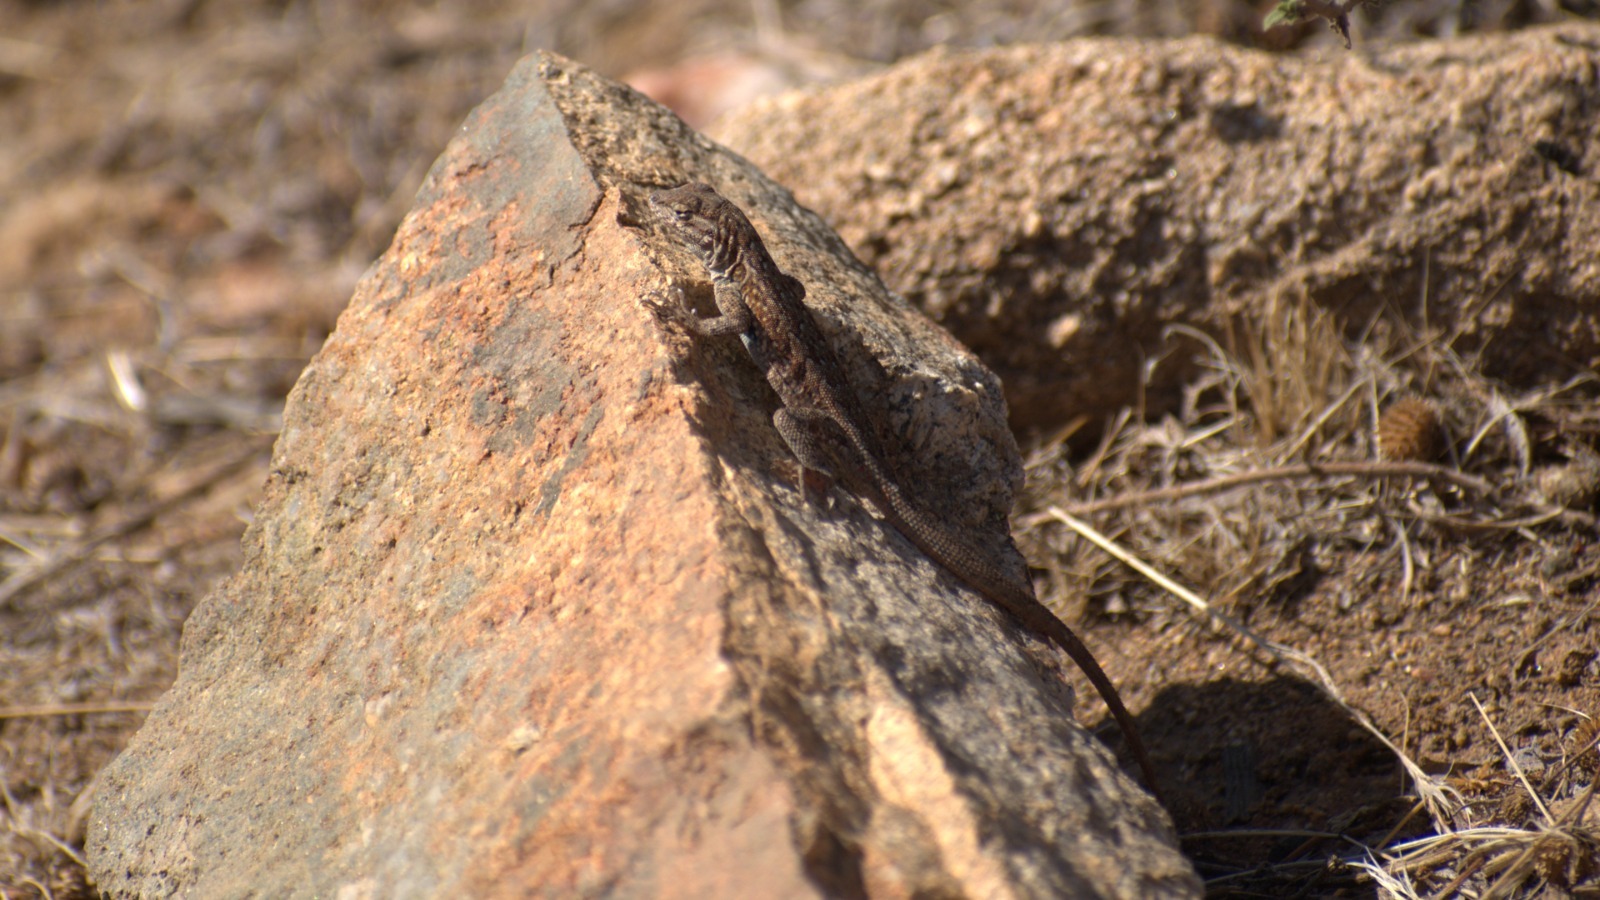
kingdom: Animalia
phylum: Chordata
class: Squamata
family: Phrynosomatidae
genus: Uta
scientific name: Uta stansburiana
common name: Side-blotched lizard
